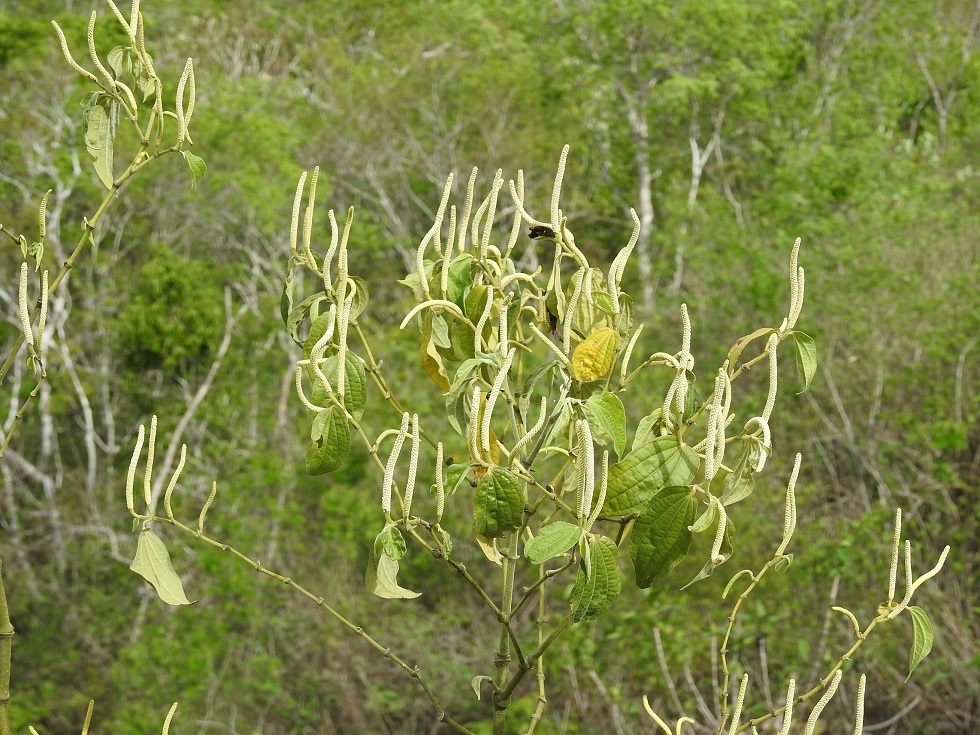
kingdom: Plantae
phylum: Tracheophyta
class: Magnoliopsida
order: Piperales
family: Piperaceae
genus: Piper
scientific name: Piper amalago
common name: Pepper-elder
